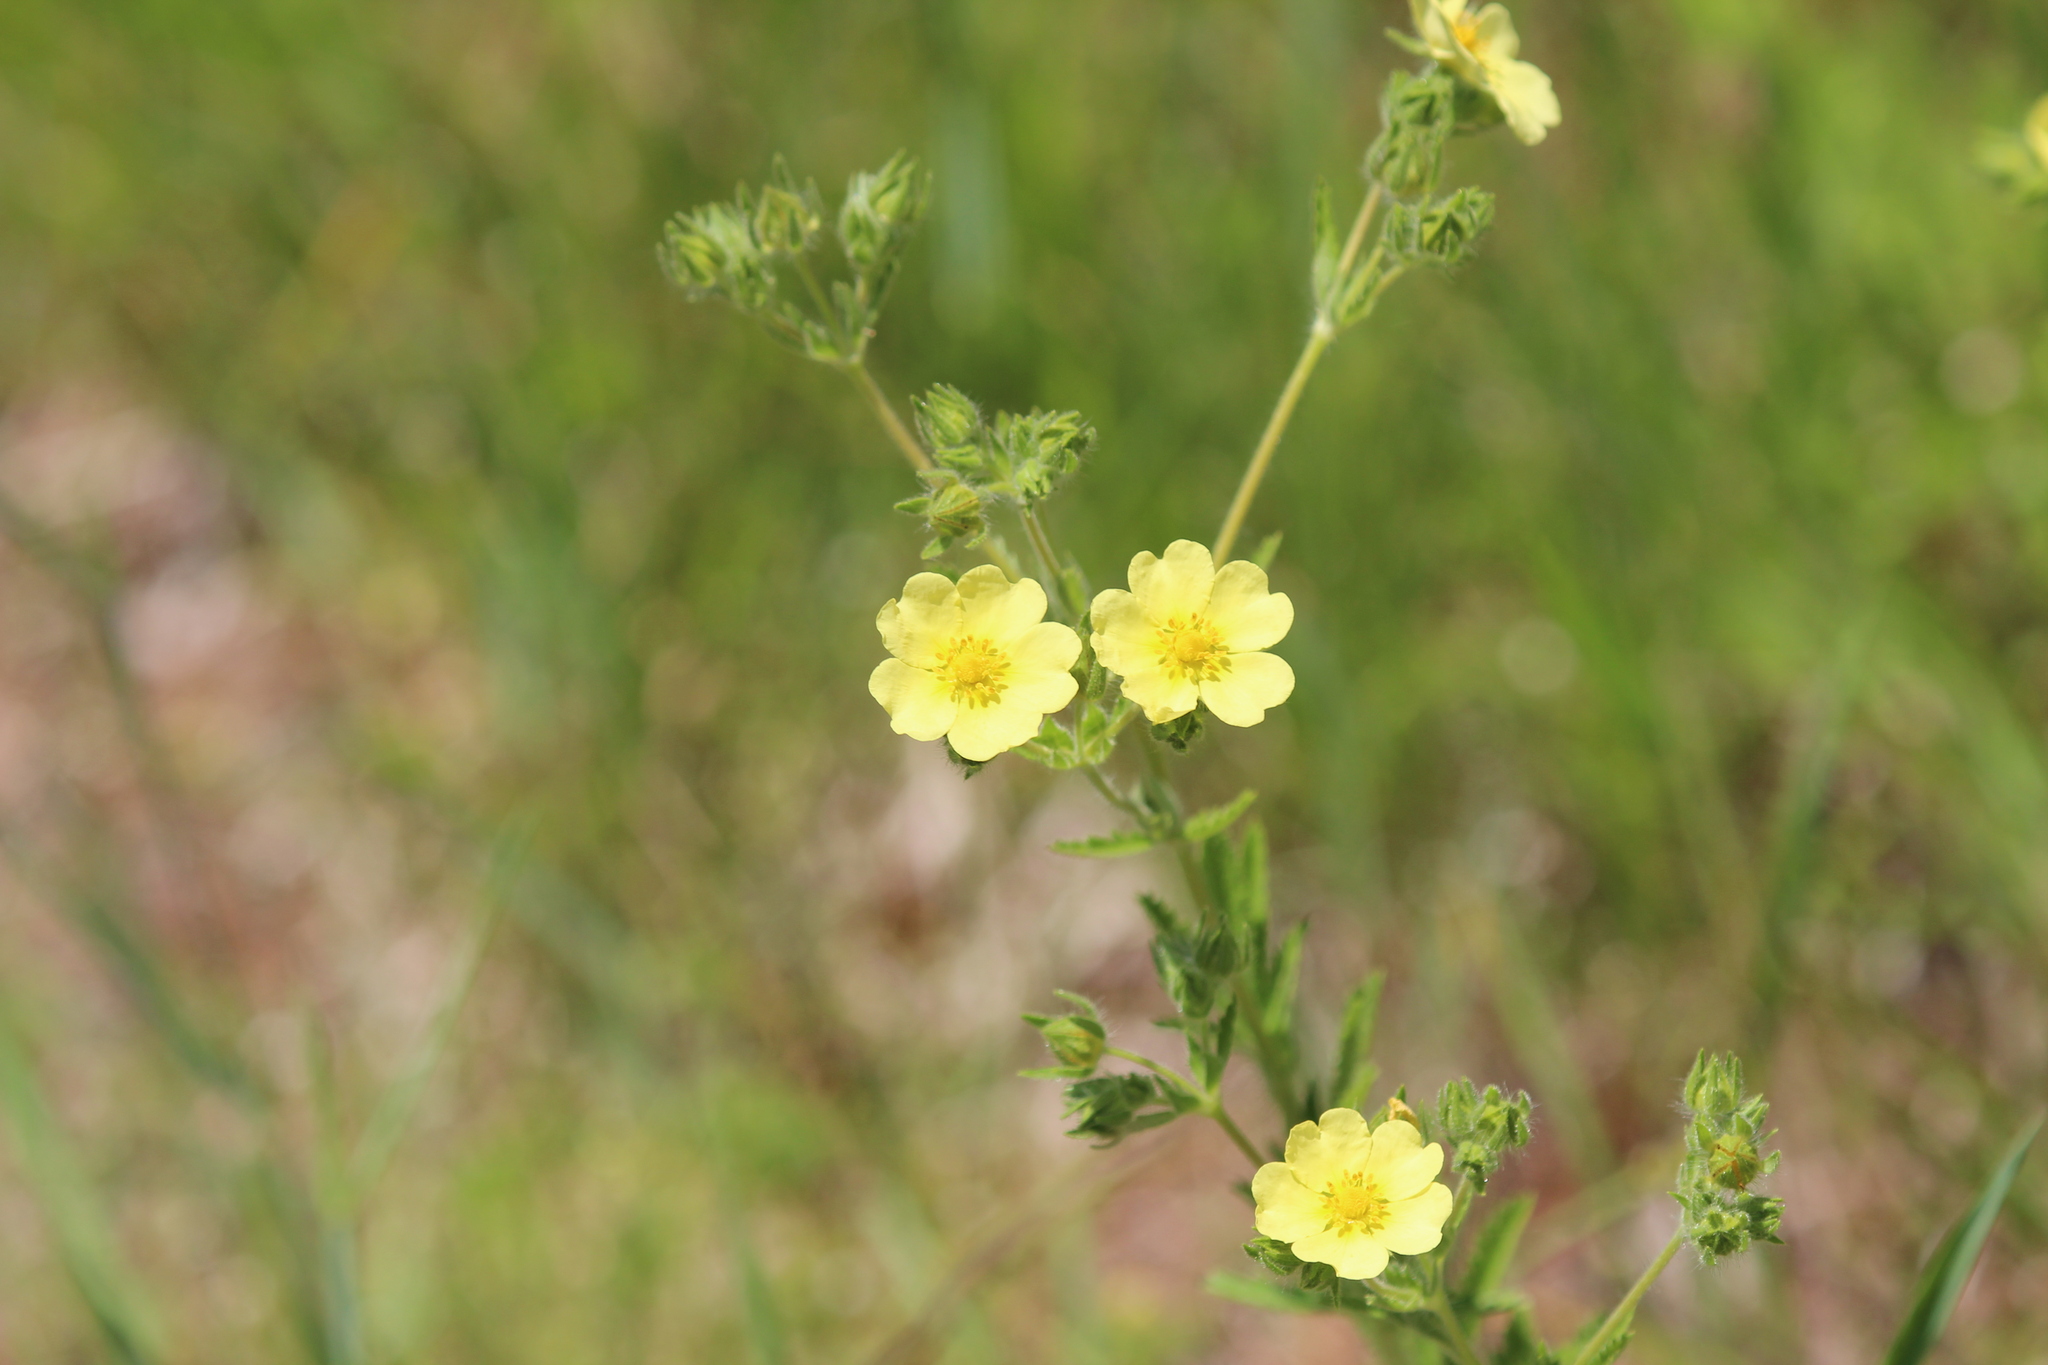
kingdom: Plantae
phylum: Tracheophyta
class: Magnoliopsida
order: Rosales
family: Rosaceae
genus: Potentilla
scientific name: Potentilla recta
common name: Sulphur cinquefoil
